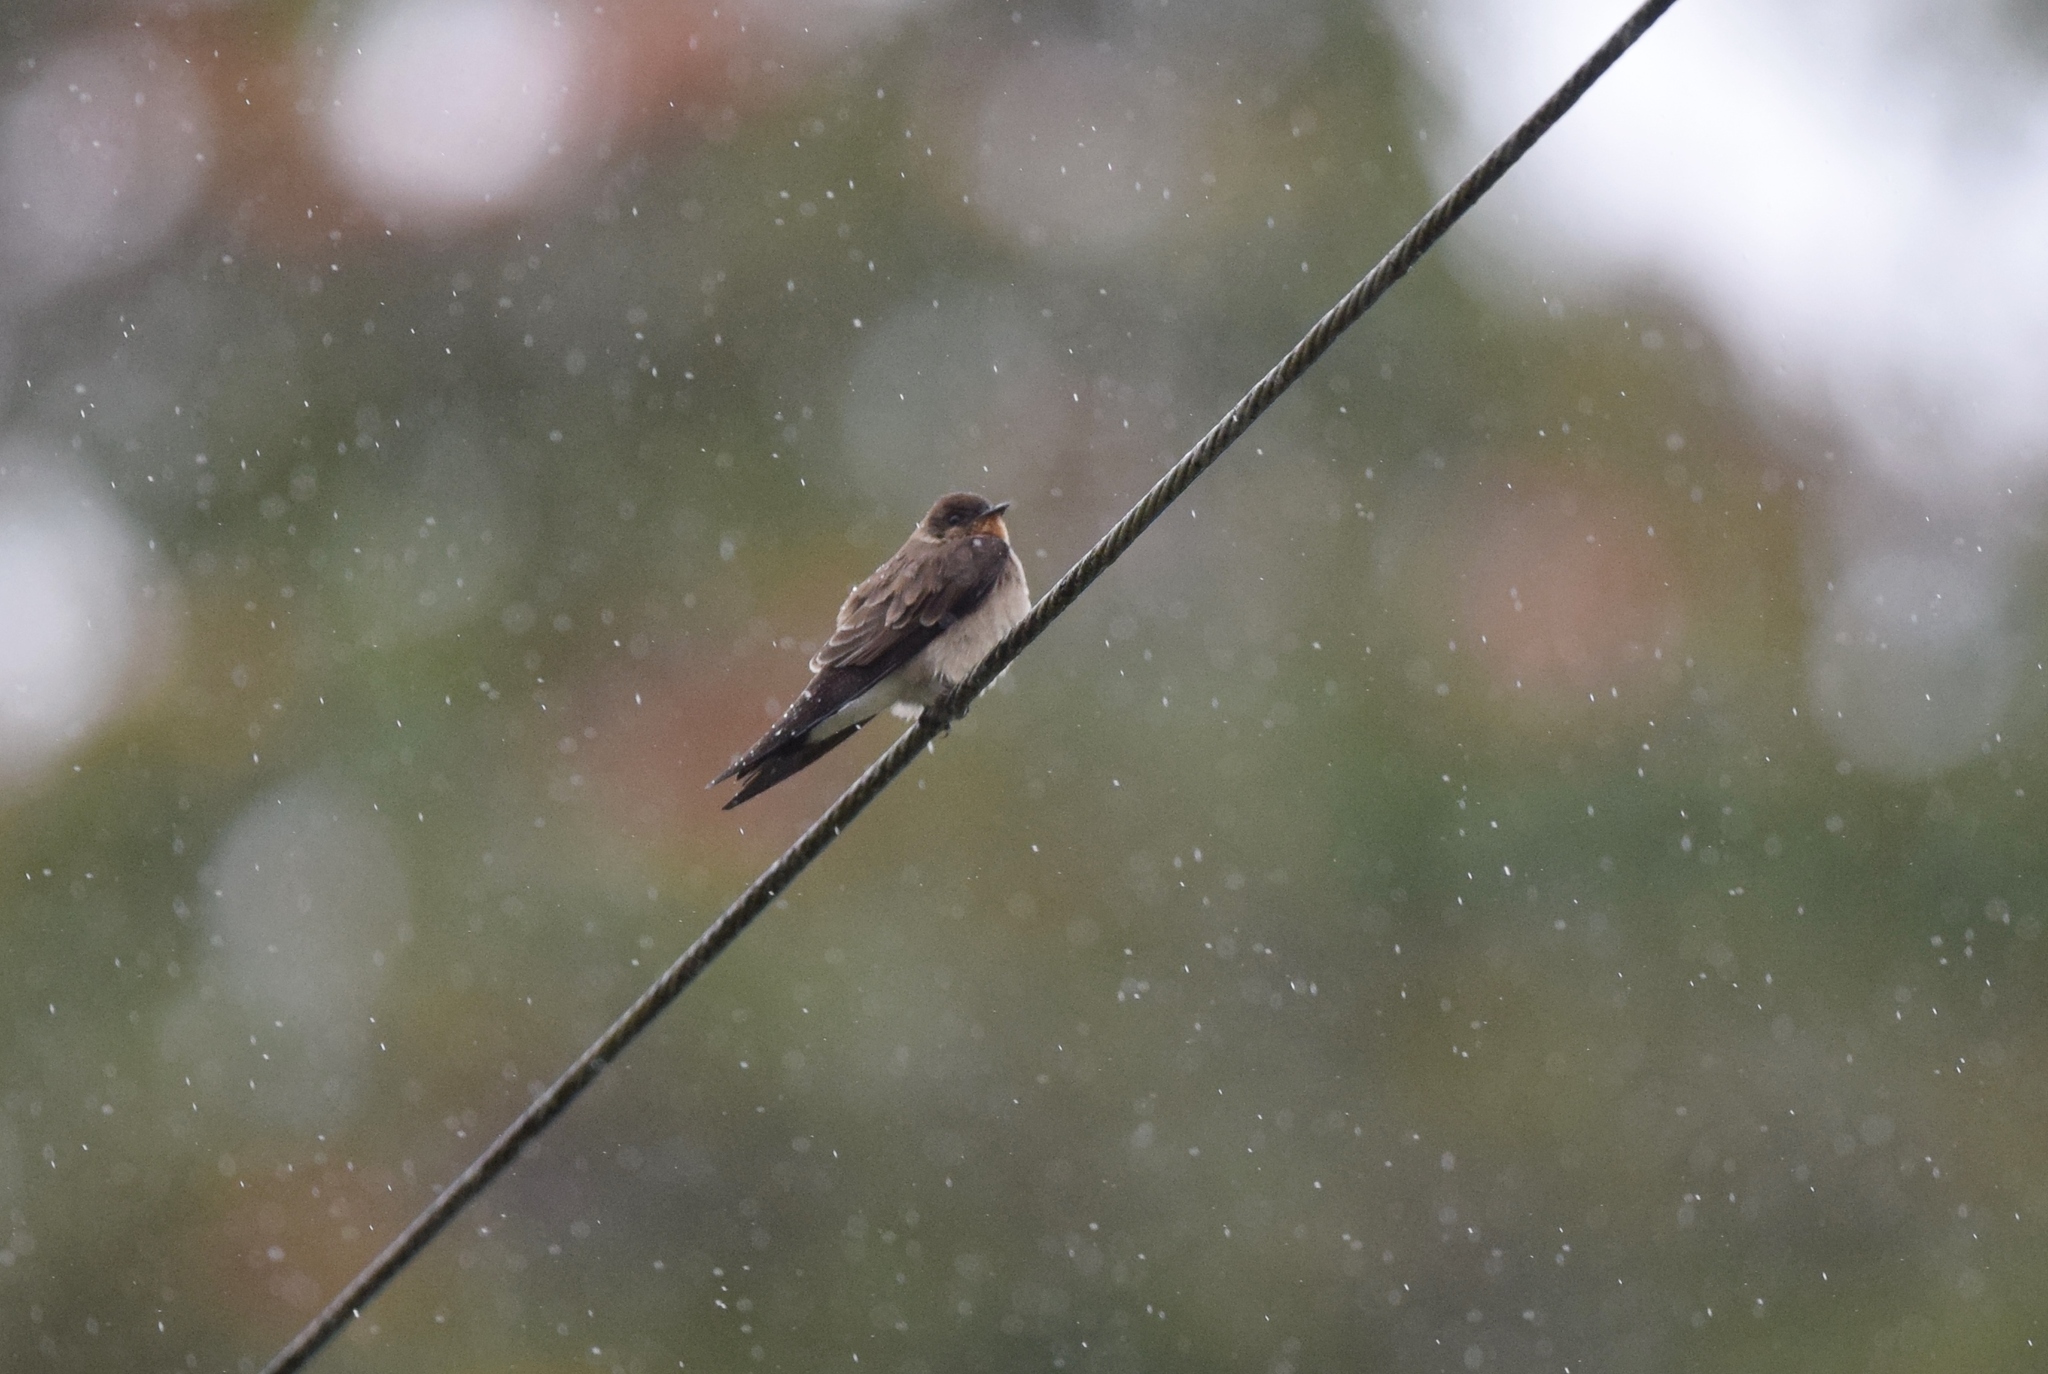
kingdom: Animalia
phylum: Chordata
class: Aves
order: Passeriformes
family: Hirundinidae
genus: Stelgidopteryx
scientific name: Stelgidopteryx ruficollis
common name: Southern rough-winged swallow
